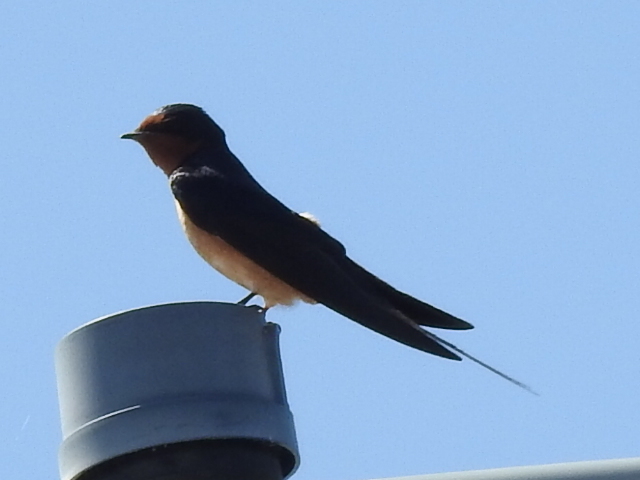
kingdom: Animalia
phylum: Chordata
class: Aves
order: Passeriformes
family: Hirundinidae
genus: Hirundo
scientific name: Hirundo rustica
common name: Barn swallow
